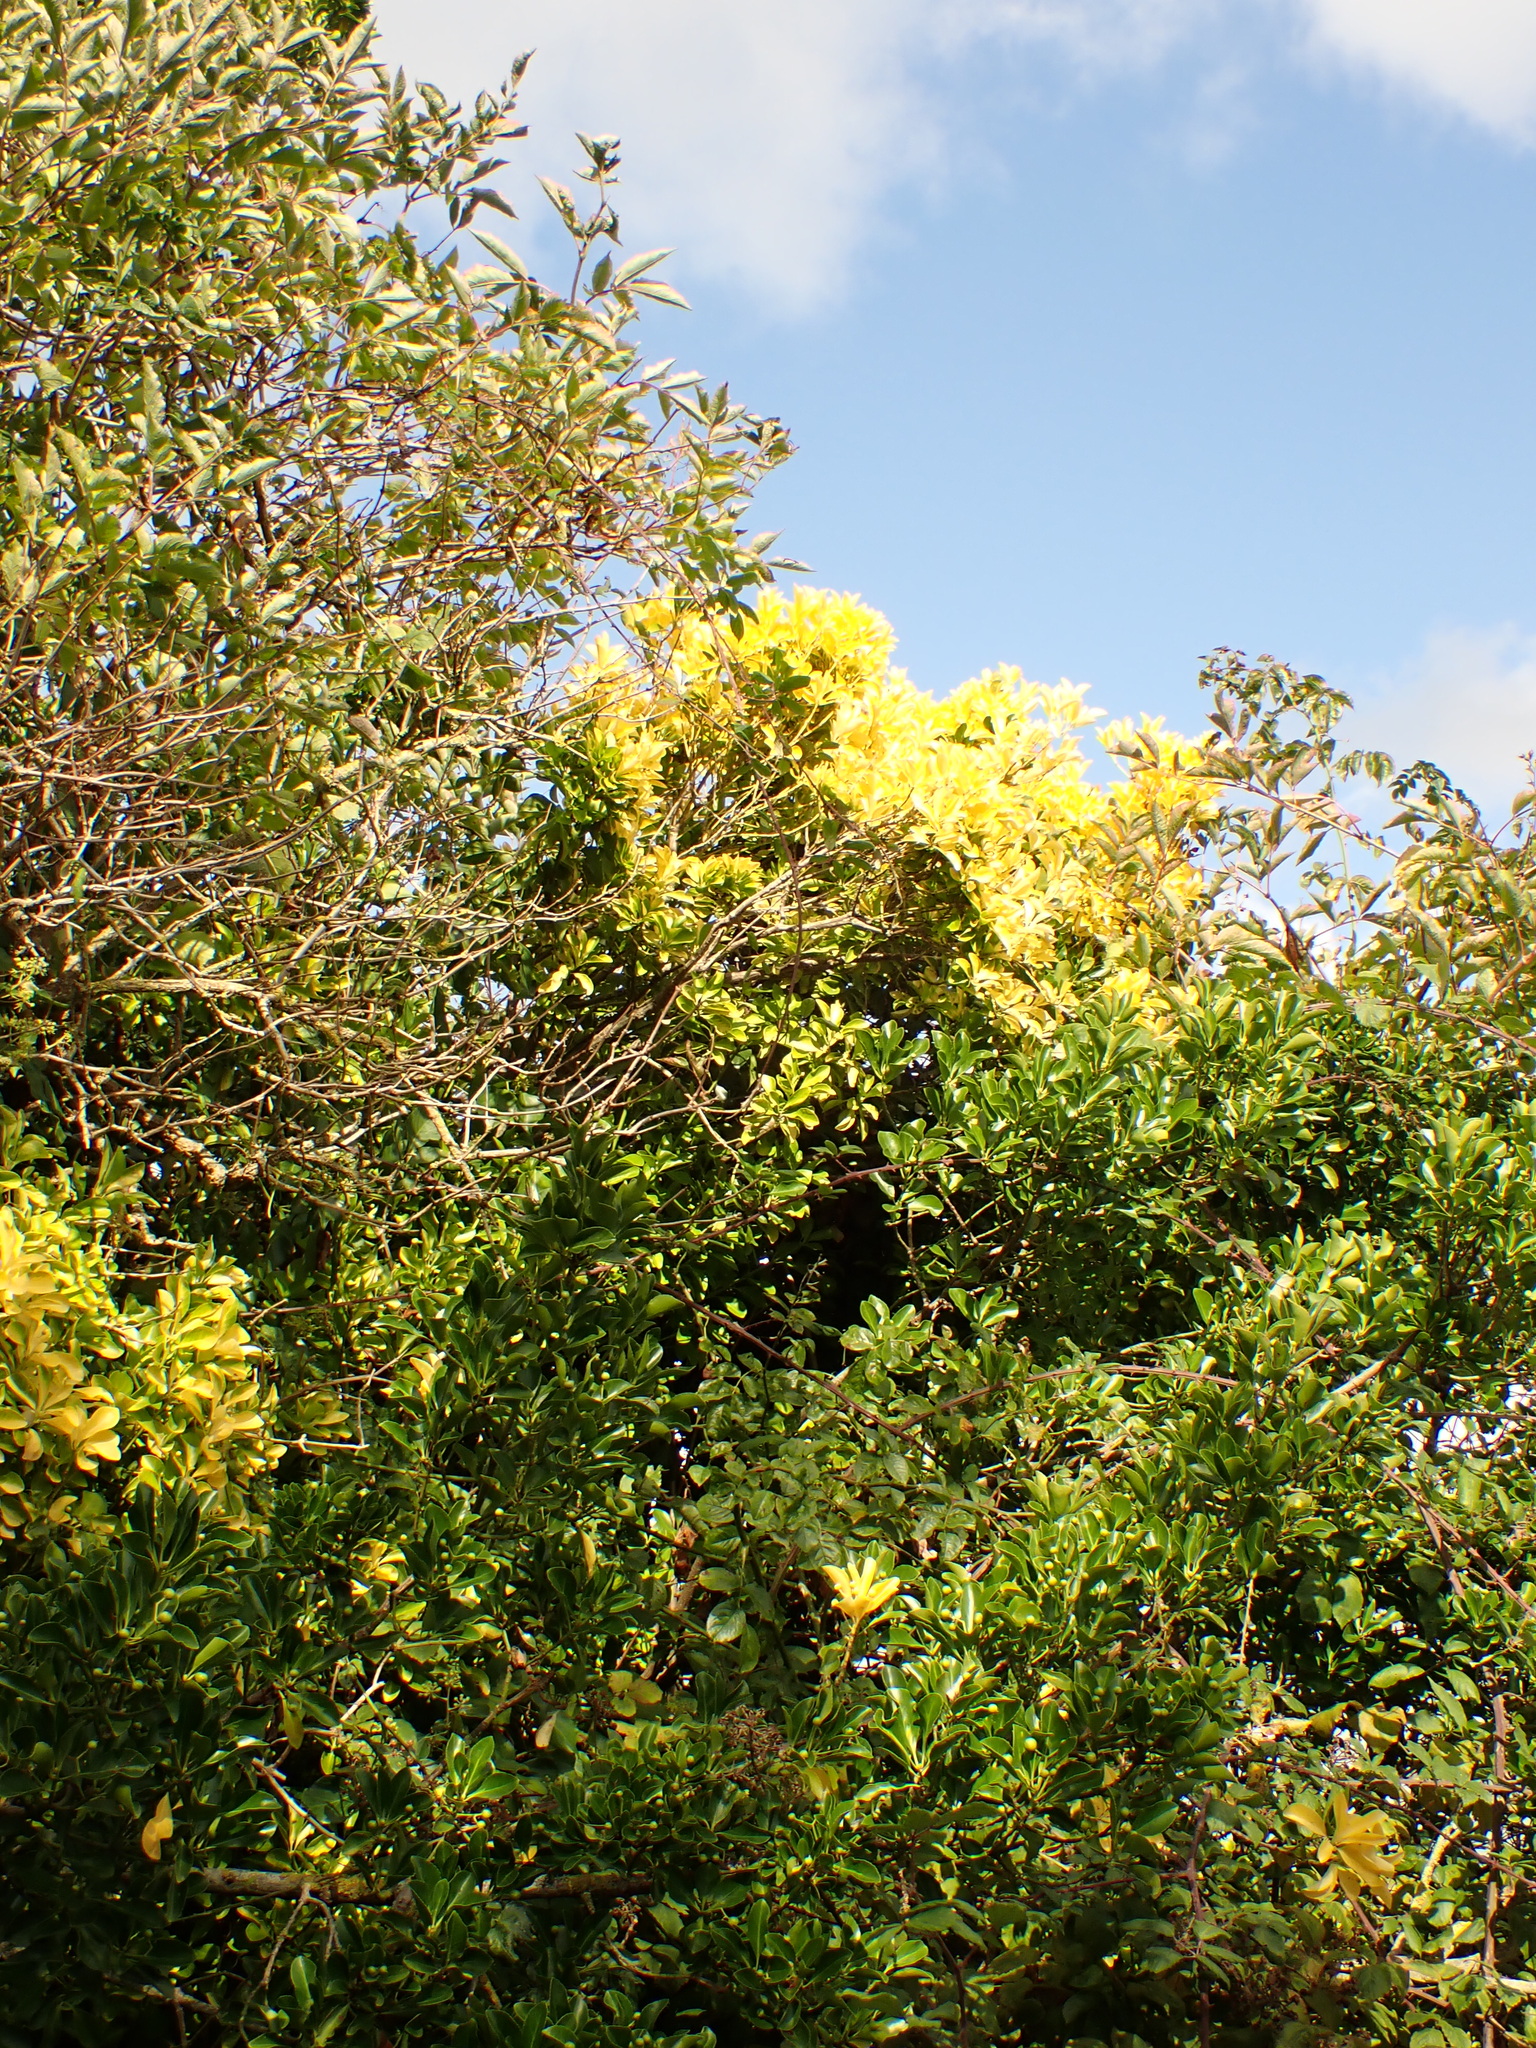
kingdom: Plantae
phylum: Tracheophyta
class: Magnoliopsida
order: Celastrales
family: Celastraceae
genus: Euonymus
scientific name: Euonymus japonicus
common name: Japanese spindletree
